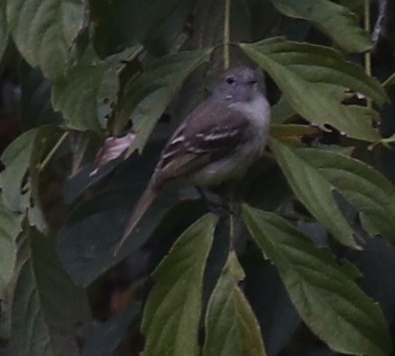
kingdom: Animalia
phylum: Chordata
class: Aves
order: Passeriformes
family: Tyrannidae
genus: Elaenia
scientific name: Elaenia frantzii
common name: Mountain elaenia
